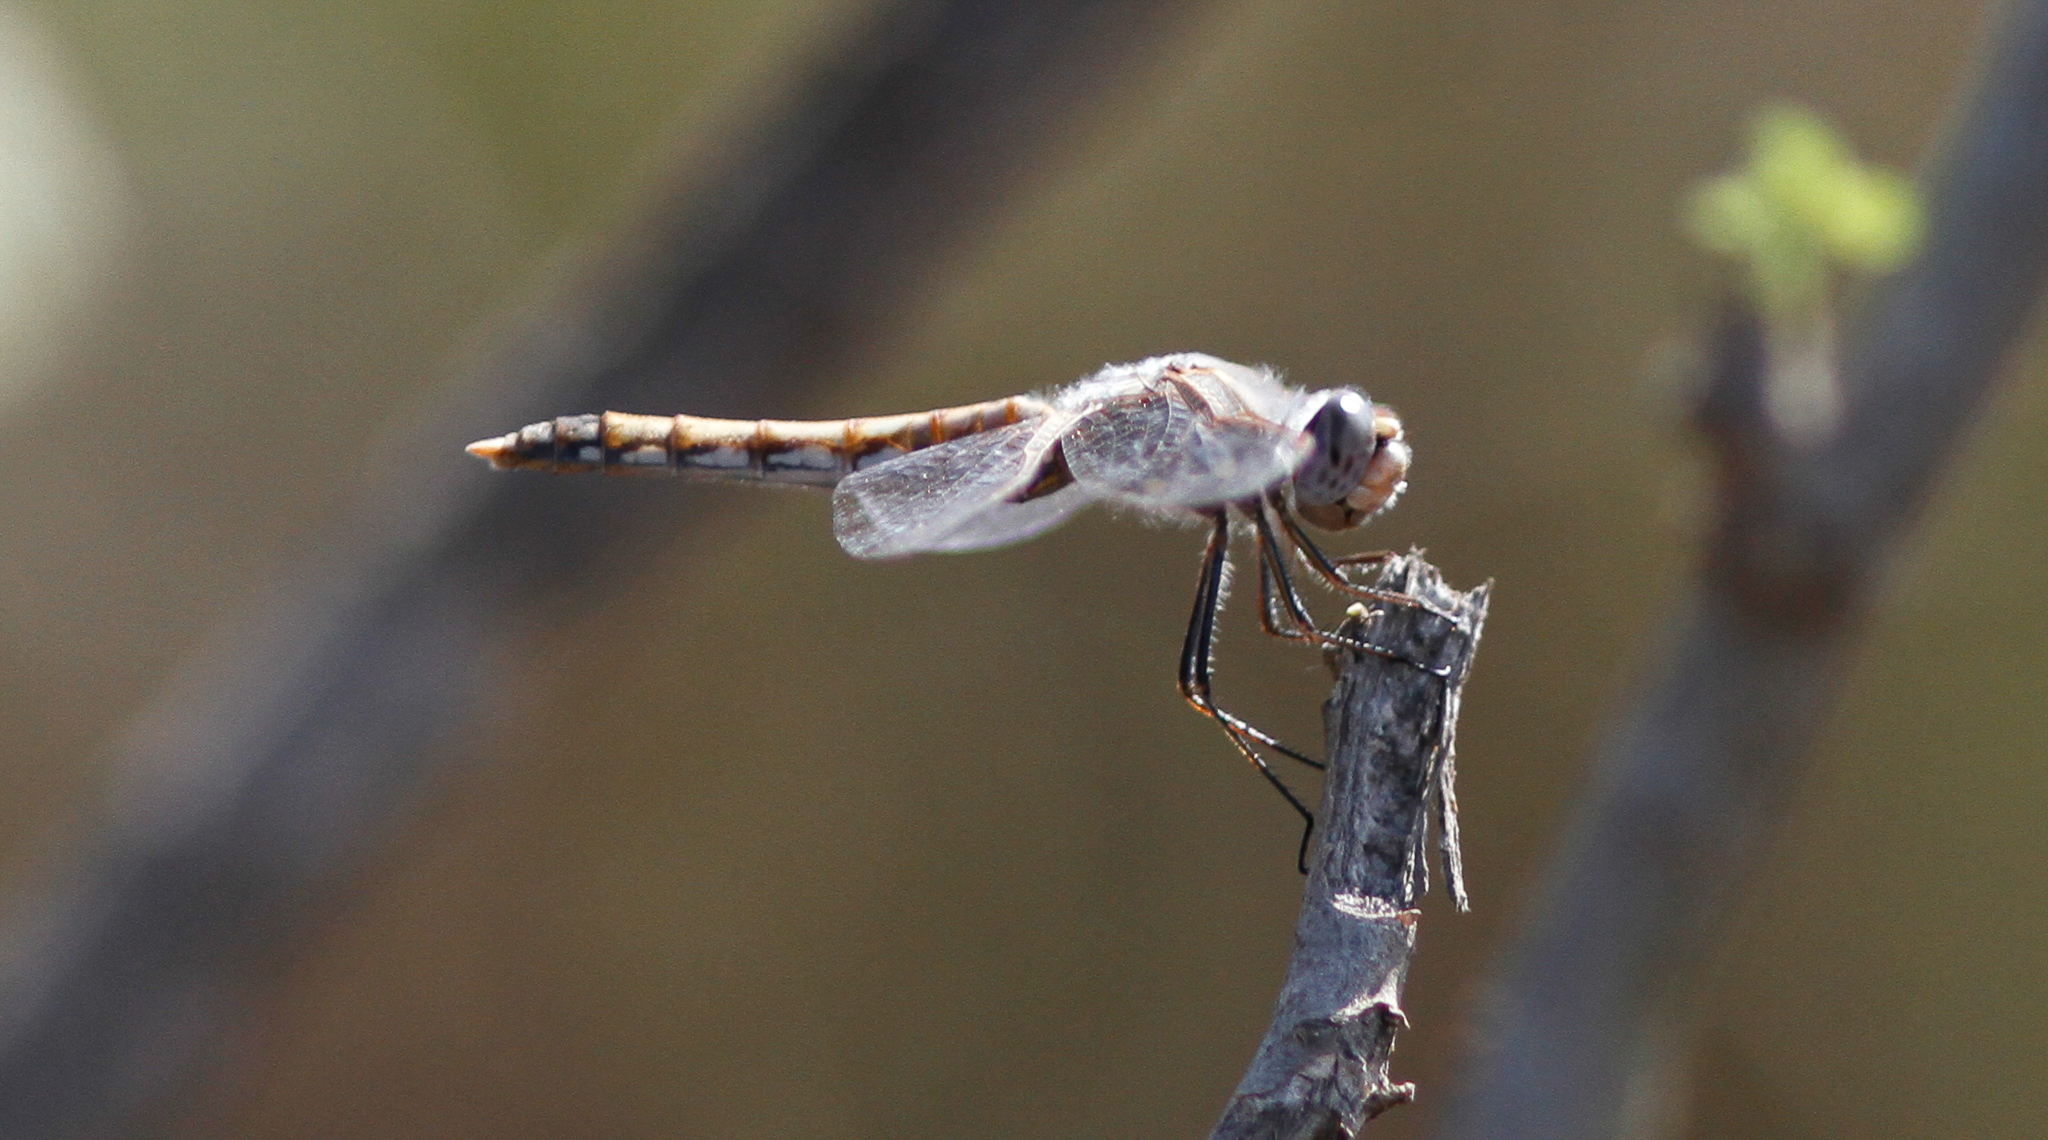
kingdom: Animalia
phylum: Arthropoda
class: Insecta
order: Odonata
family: Libellulidae
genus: Sympetrum
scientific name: Sympetrum corruptum
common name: Variegated meadowhawk
